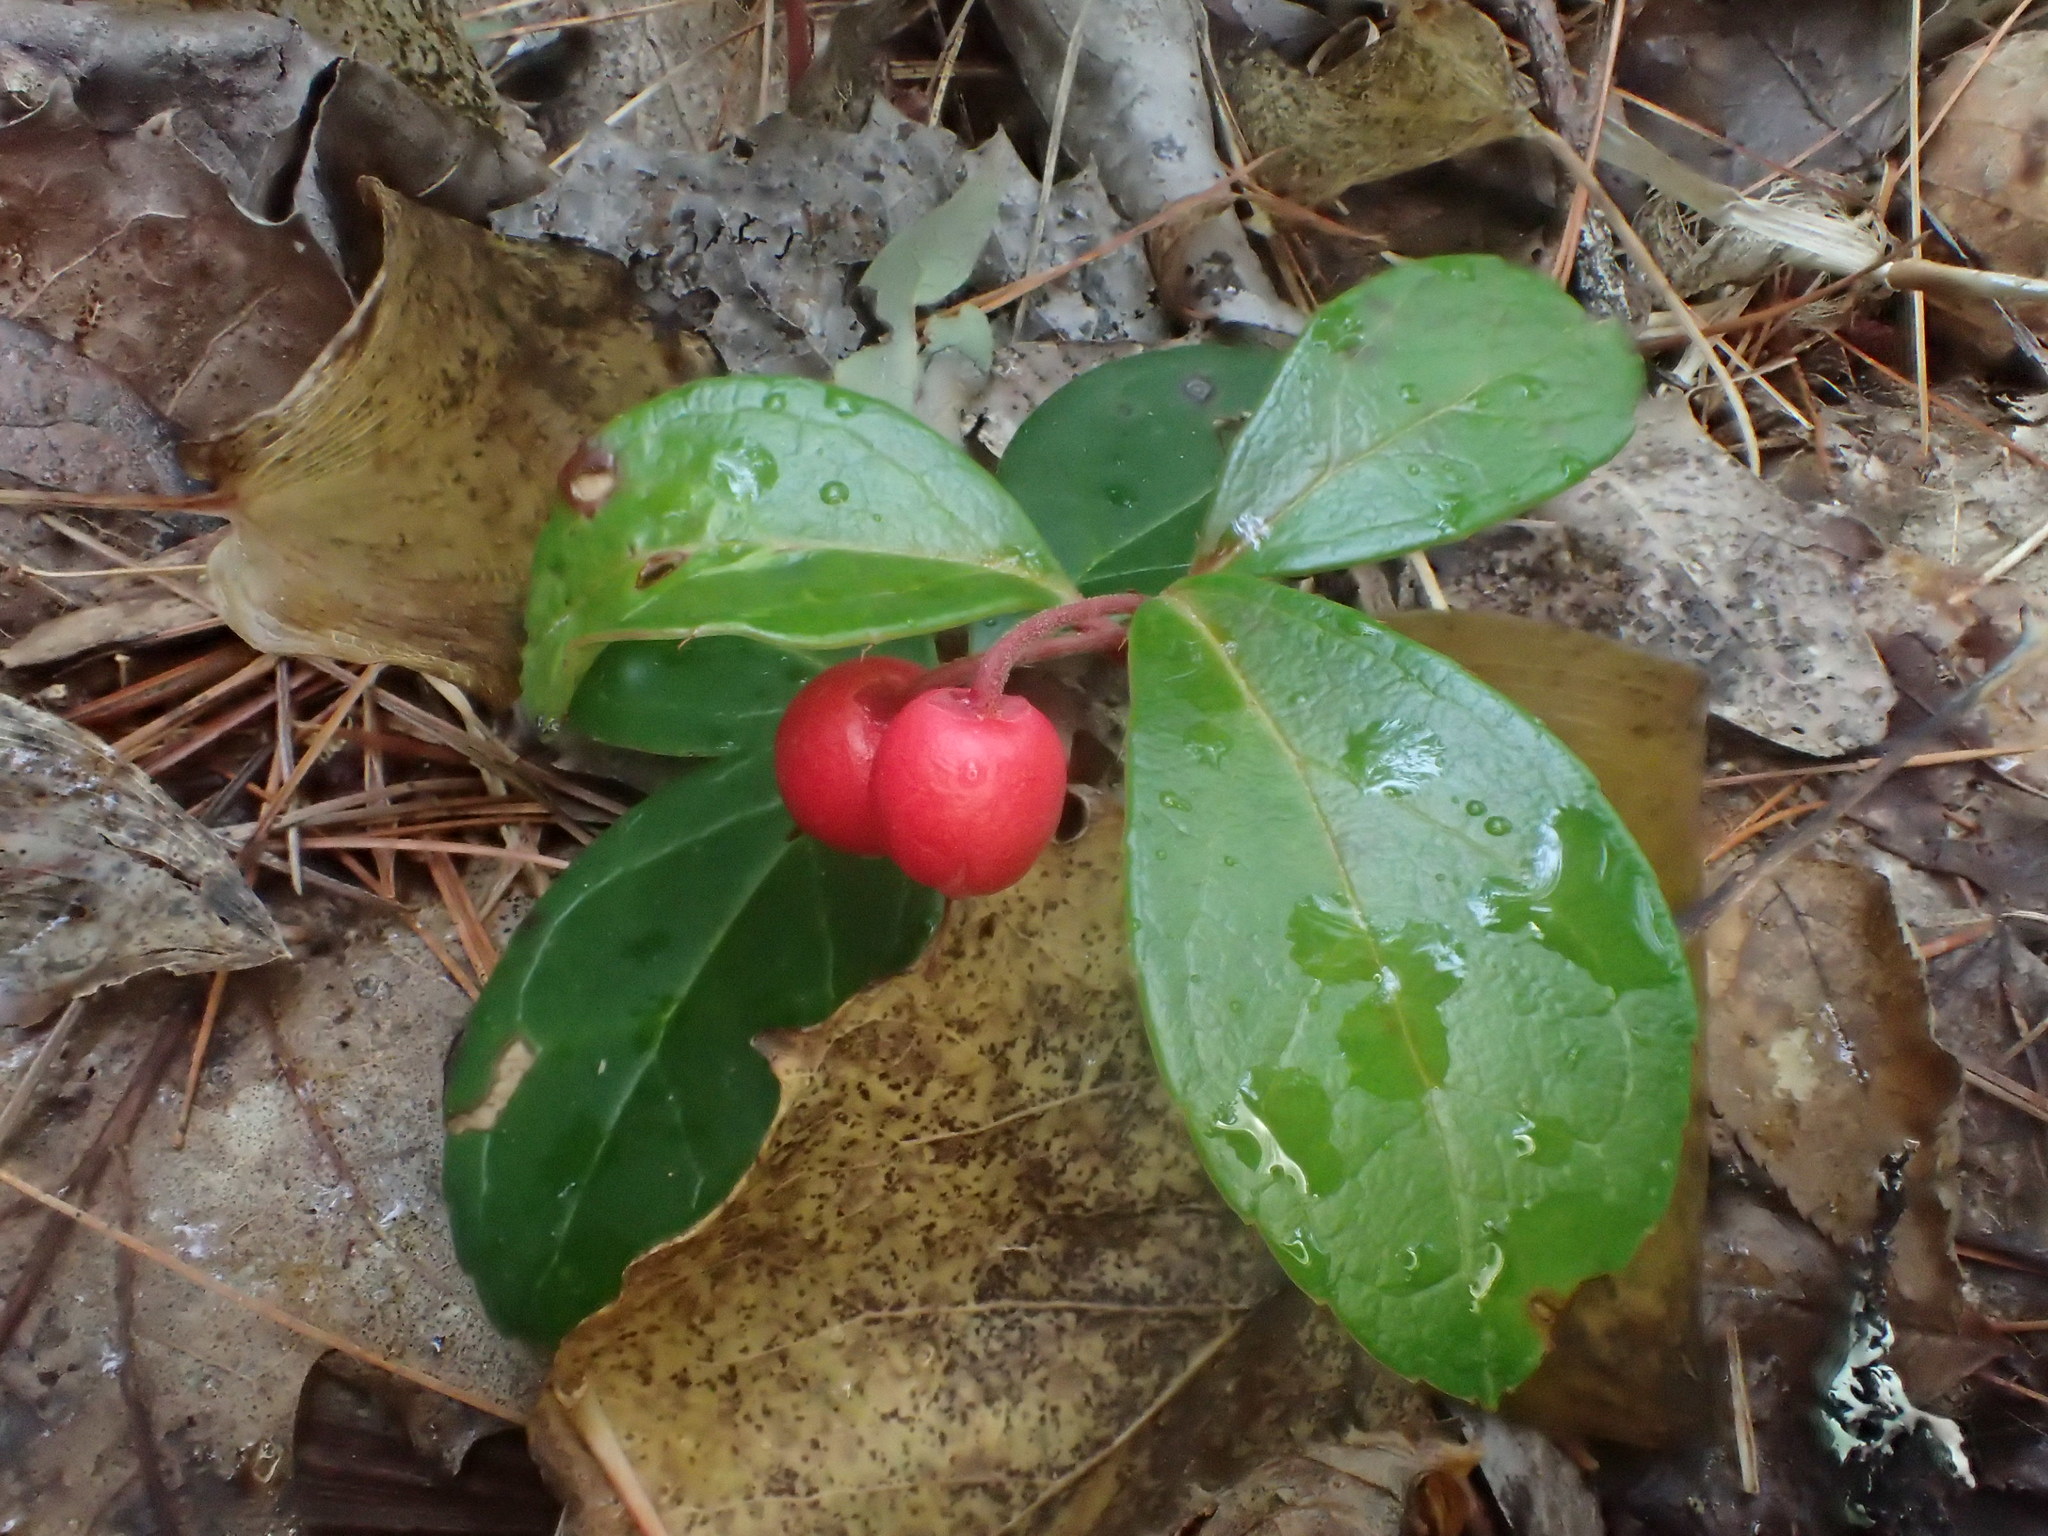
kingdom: Plantae
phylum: Tracheophyta
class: Magnoliopsida
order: Ericales
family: Ericaceae
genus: Gaultheria
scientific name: Gaultheria procumbens
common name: Checkerberry
